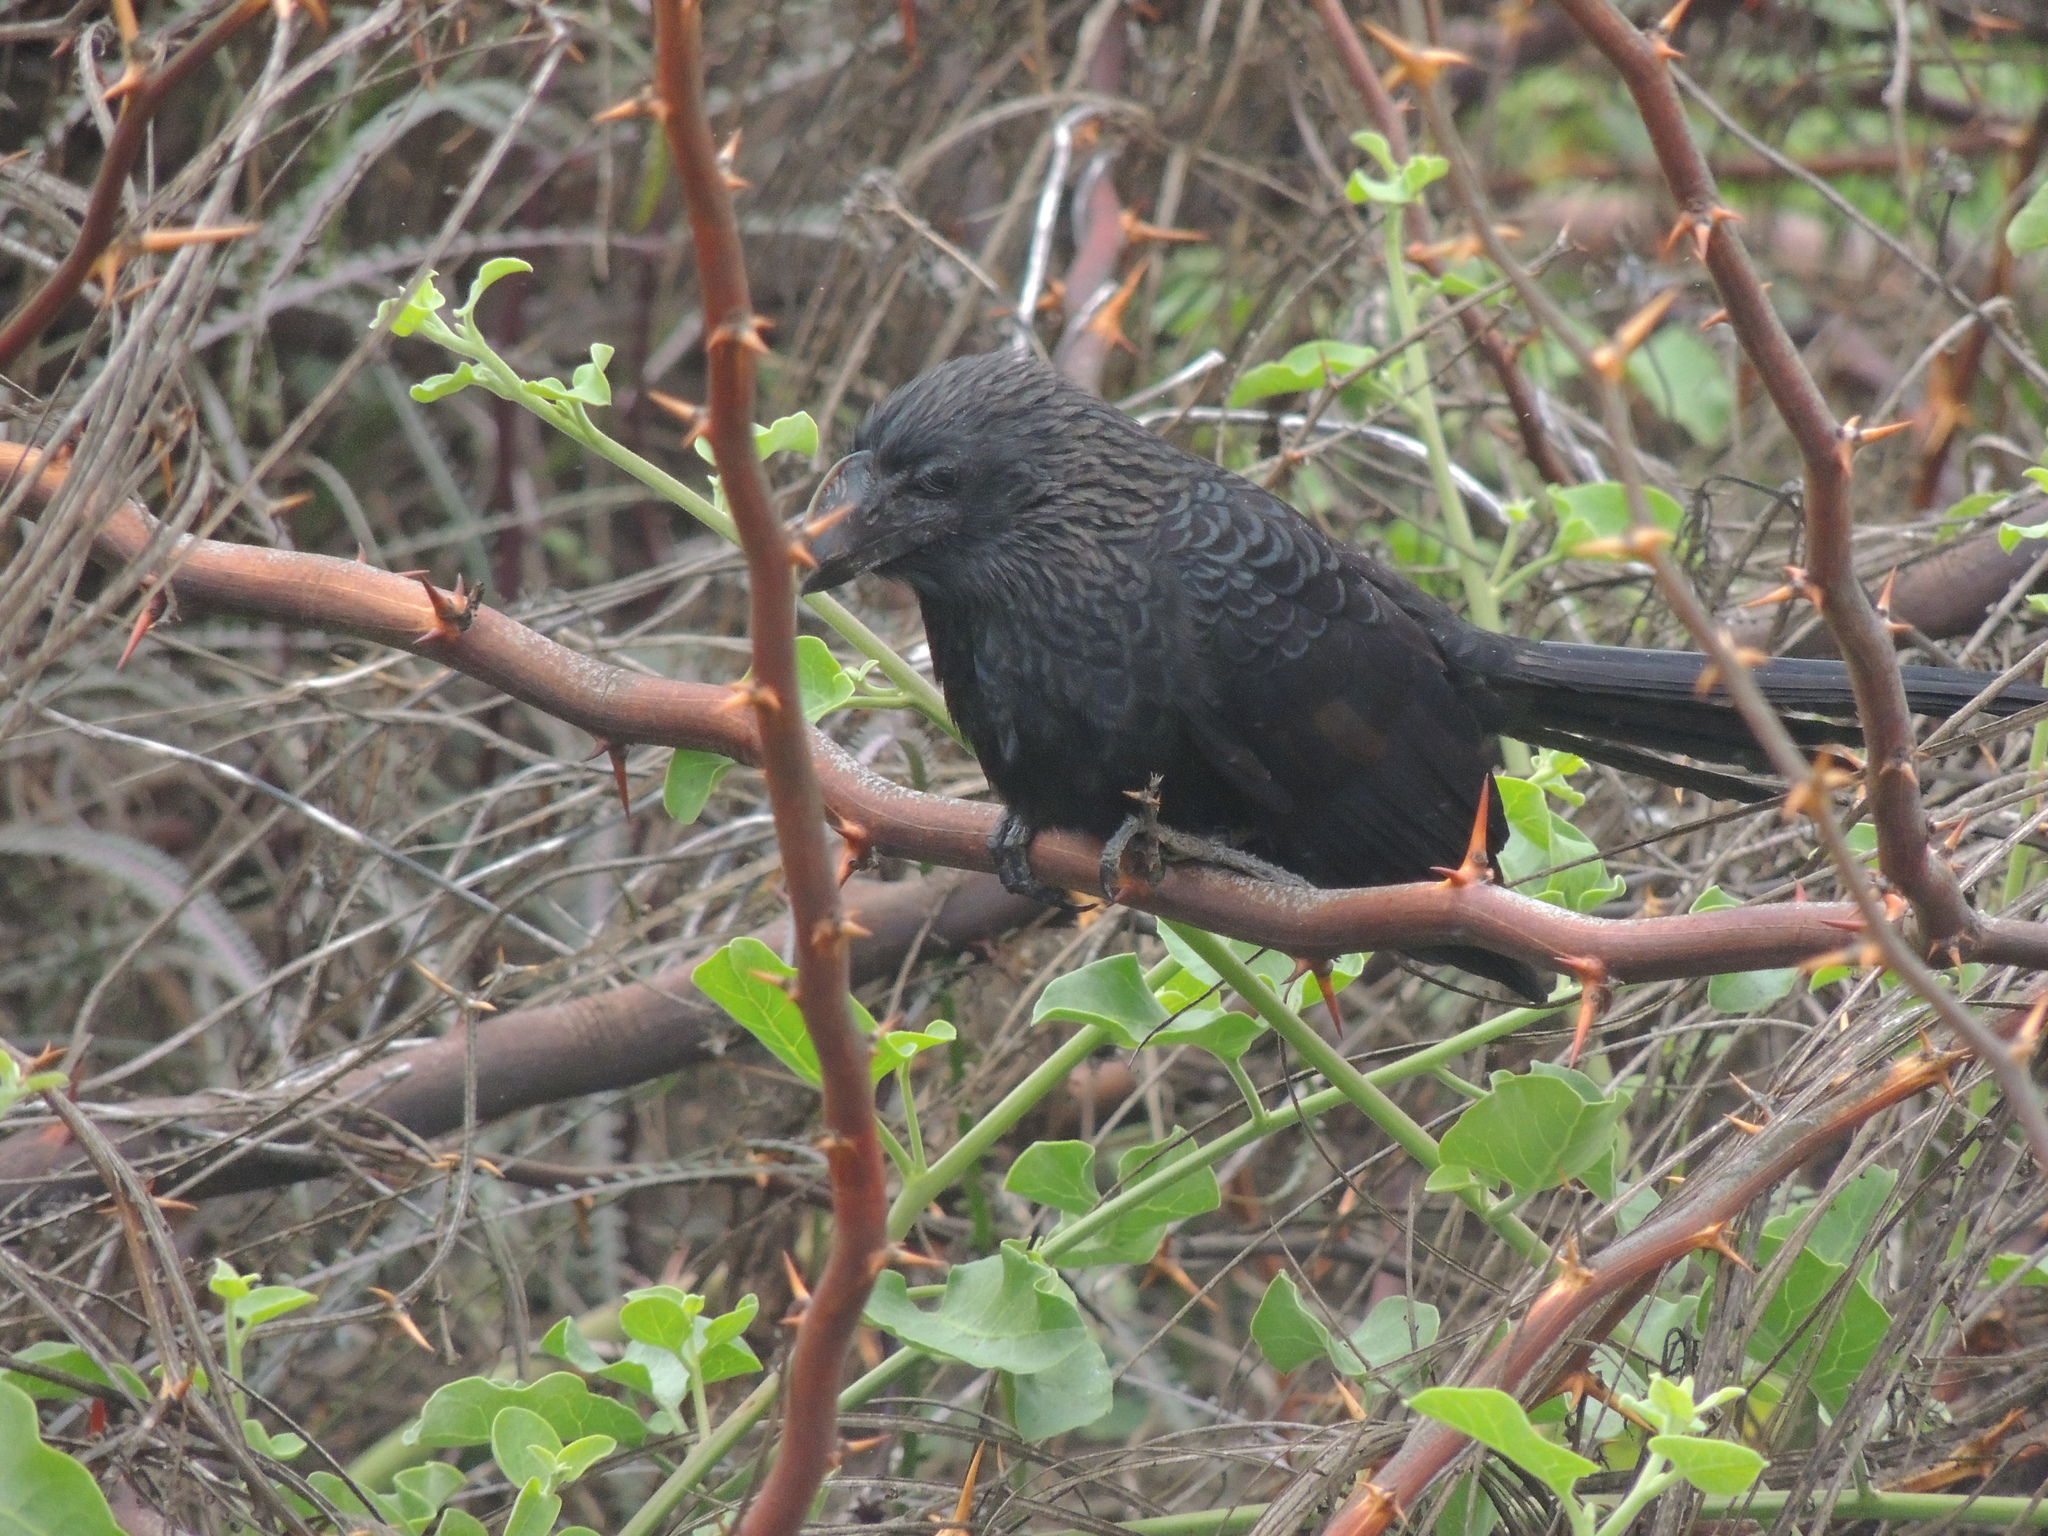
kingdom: Animalia
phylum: Chordata
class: Aves
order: Cuculiformes
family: Cuculidae
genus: Crotophaga
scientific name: Crotophaga ani
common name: Smooth-billed ani
